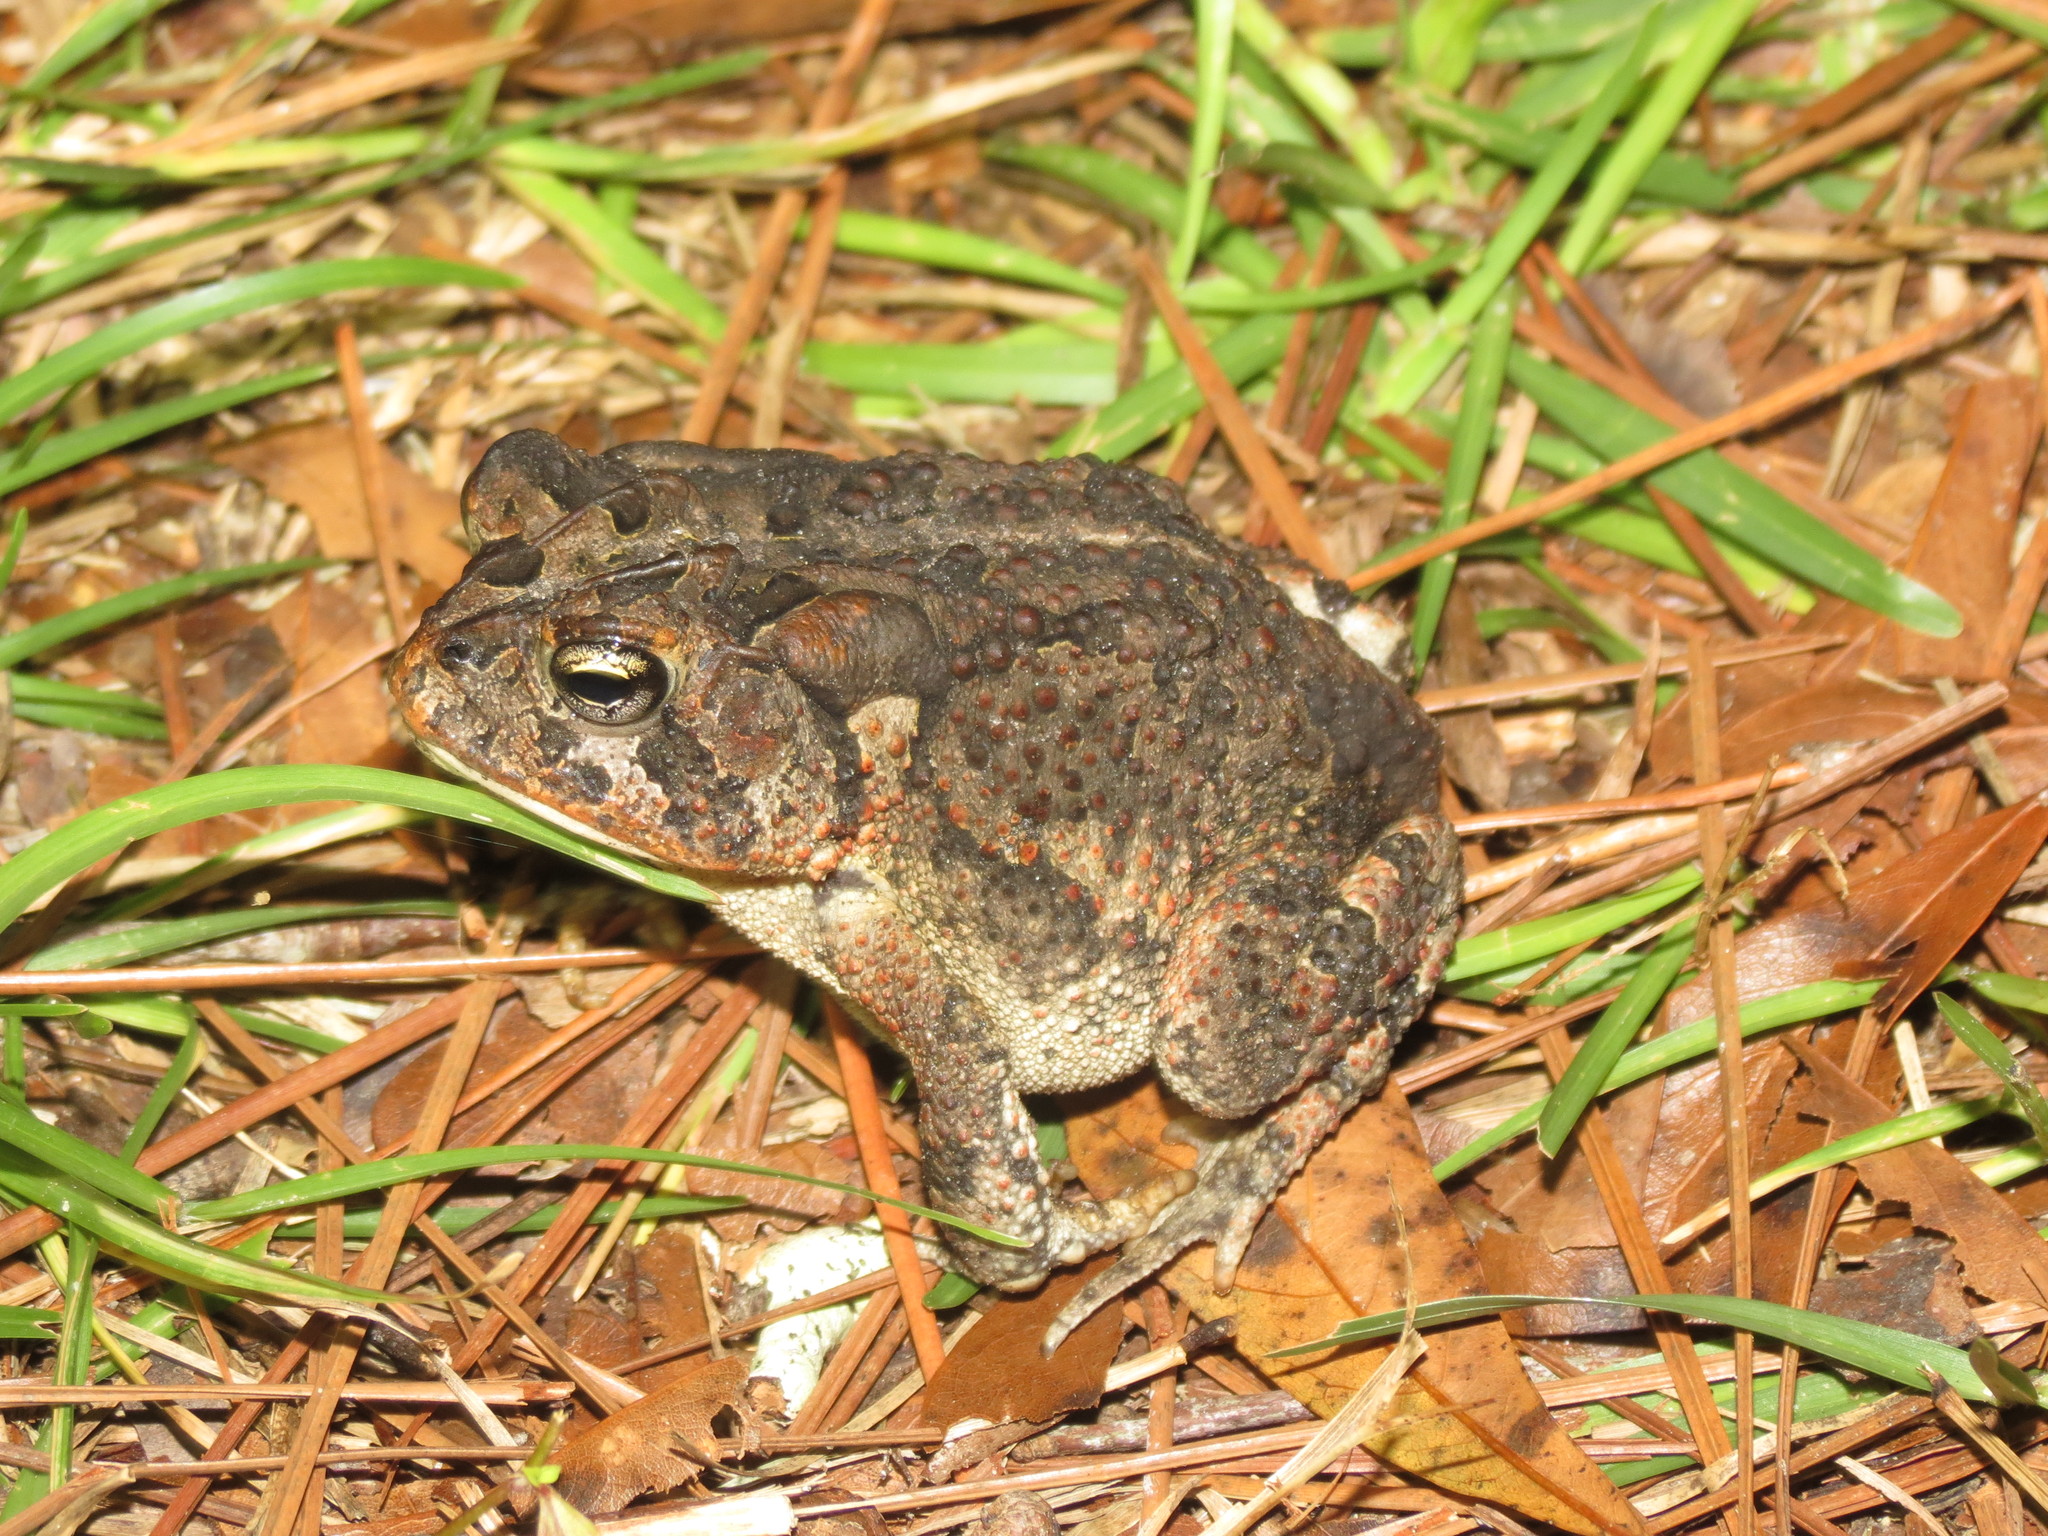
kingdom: Animalia
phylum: Chordata
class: Amphibia
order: Anura
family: Bufonidae
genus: Anaxyrus
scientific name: Anaxyrus terrestris
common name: Southern toad
